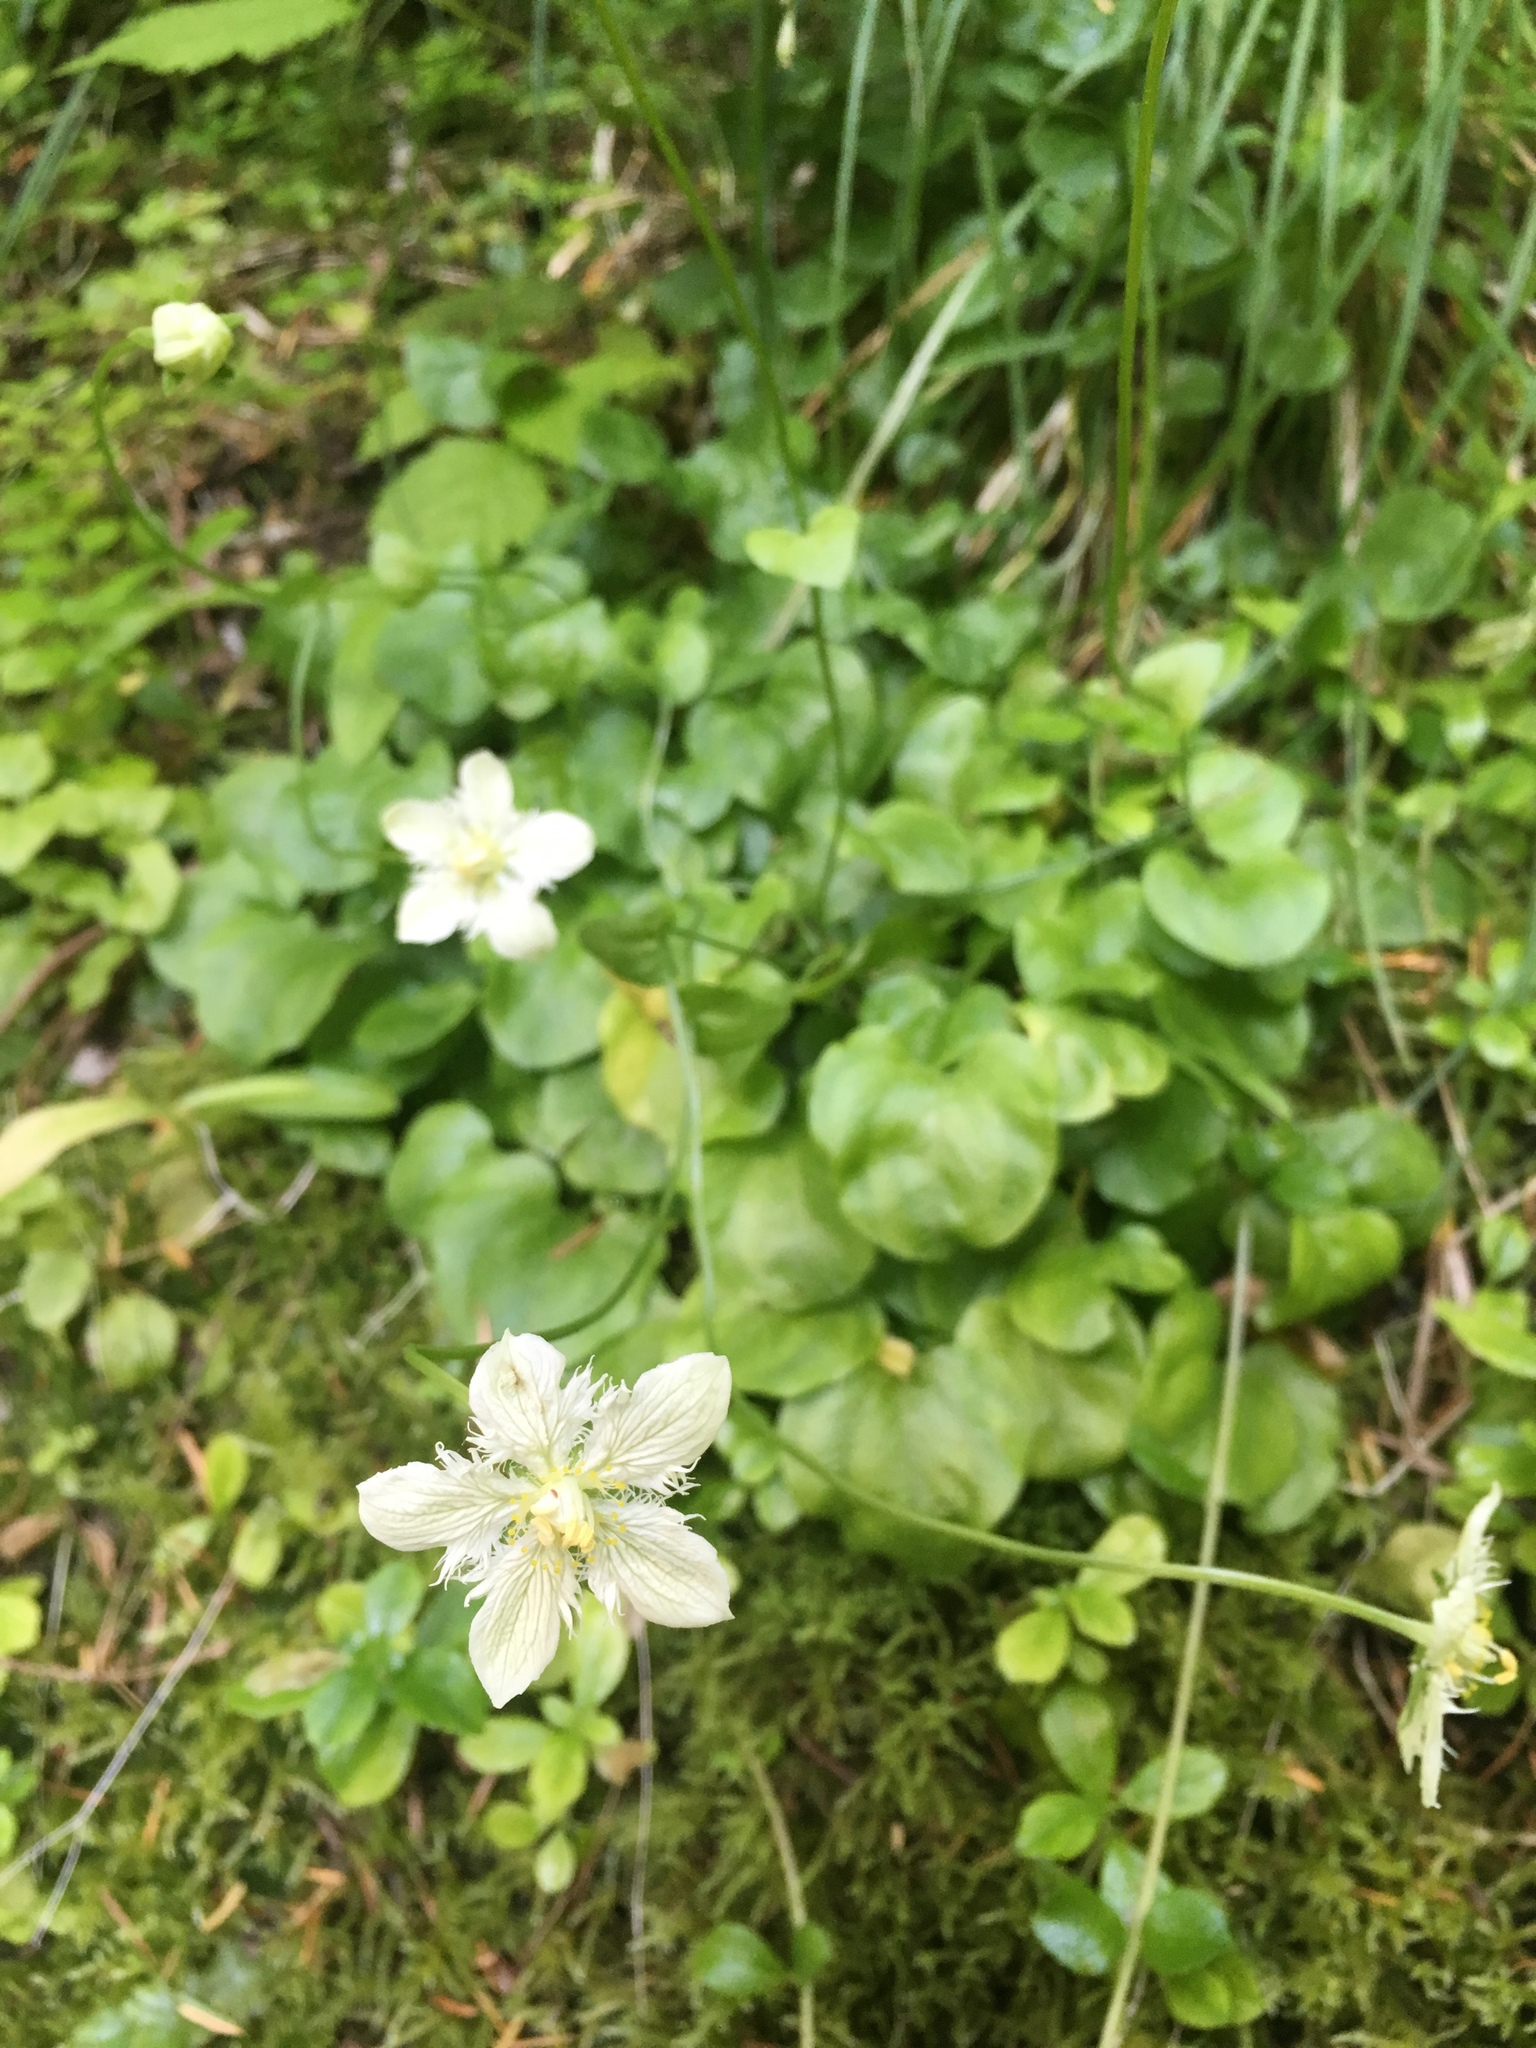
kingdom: Plantae
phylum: Tracheophyta
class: Magnoliopsida
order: Celastrales
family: Parnassiaceae
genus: Parnassia
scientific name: Parnassia cirrata
